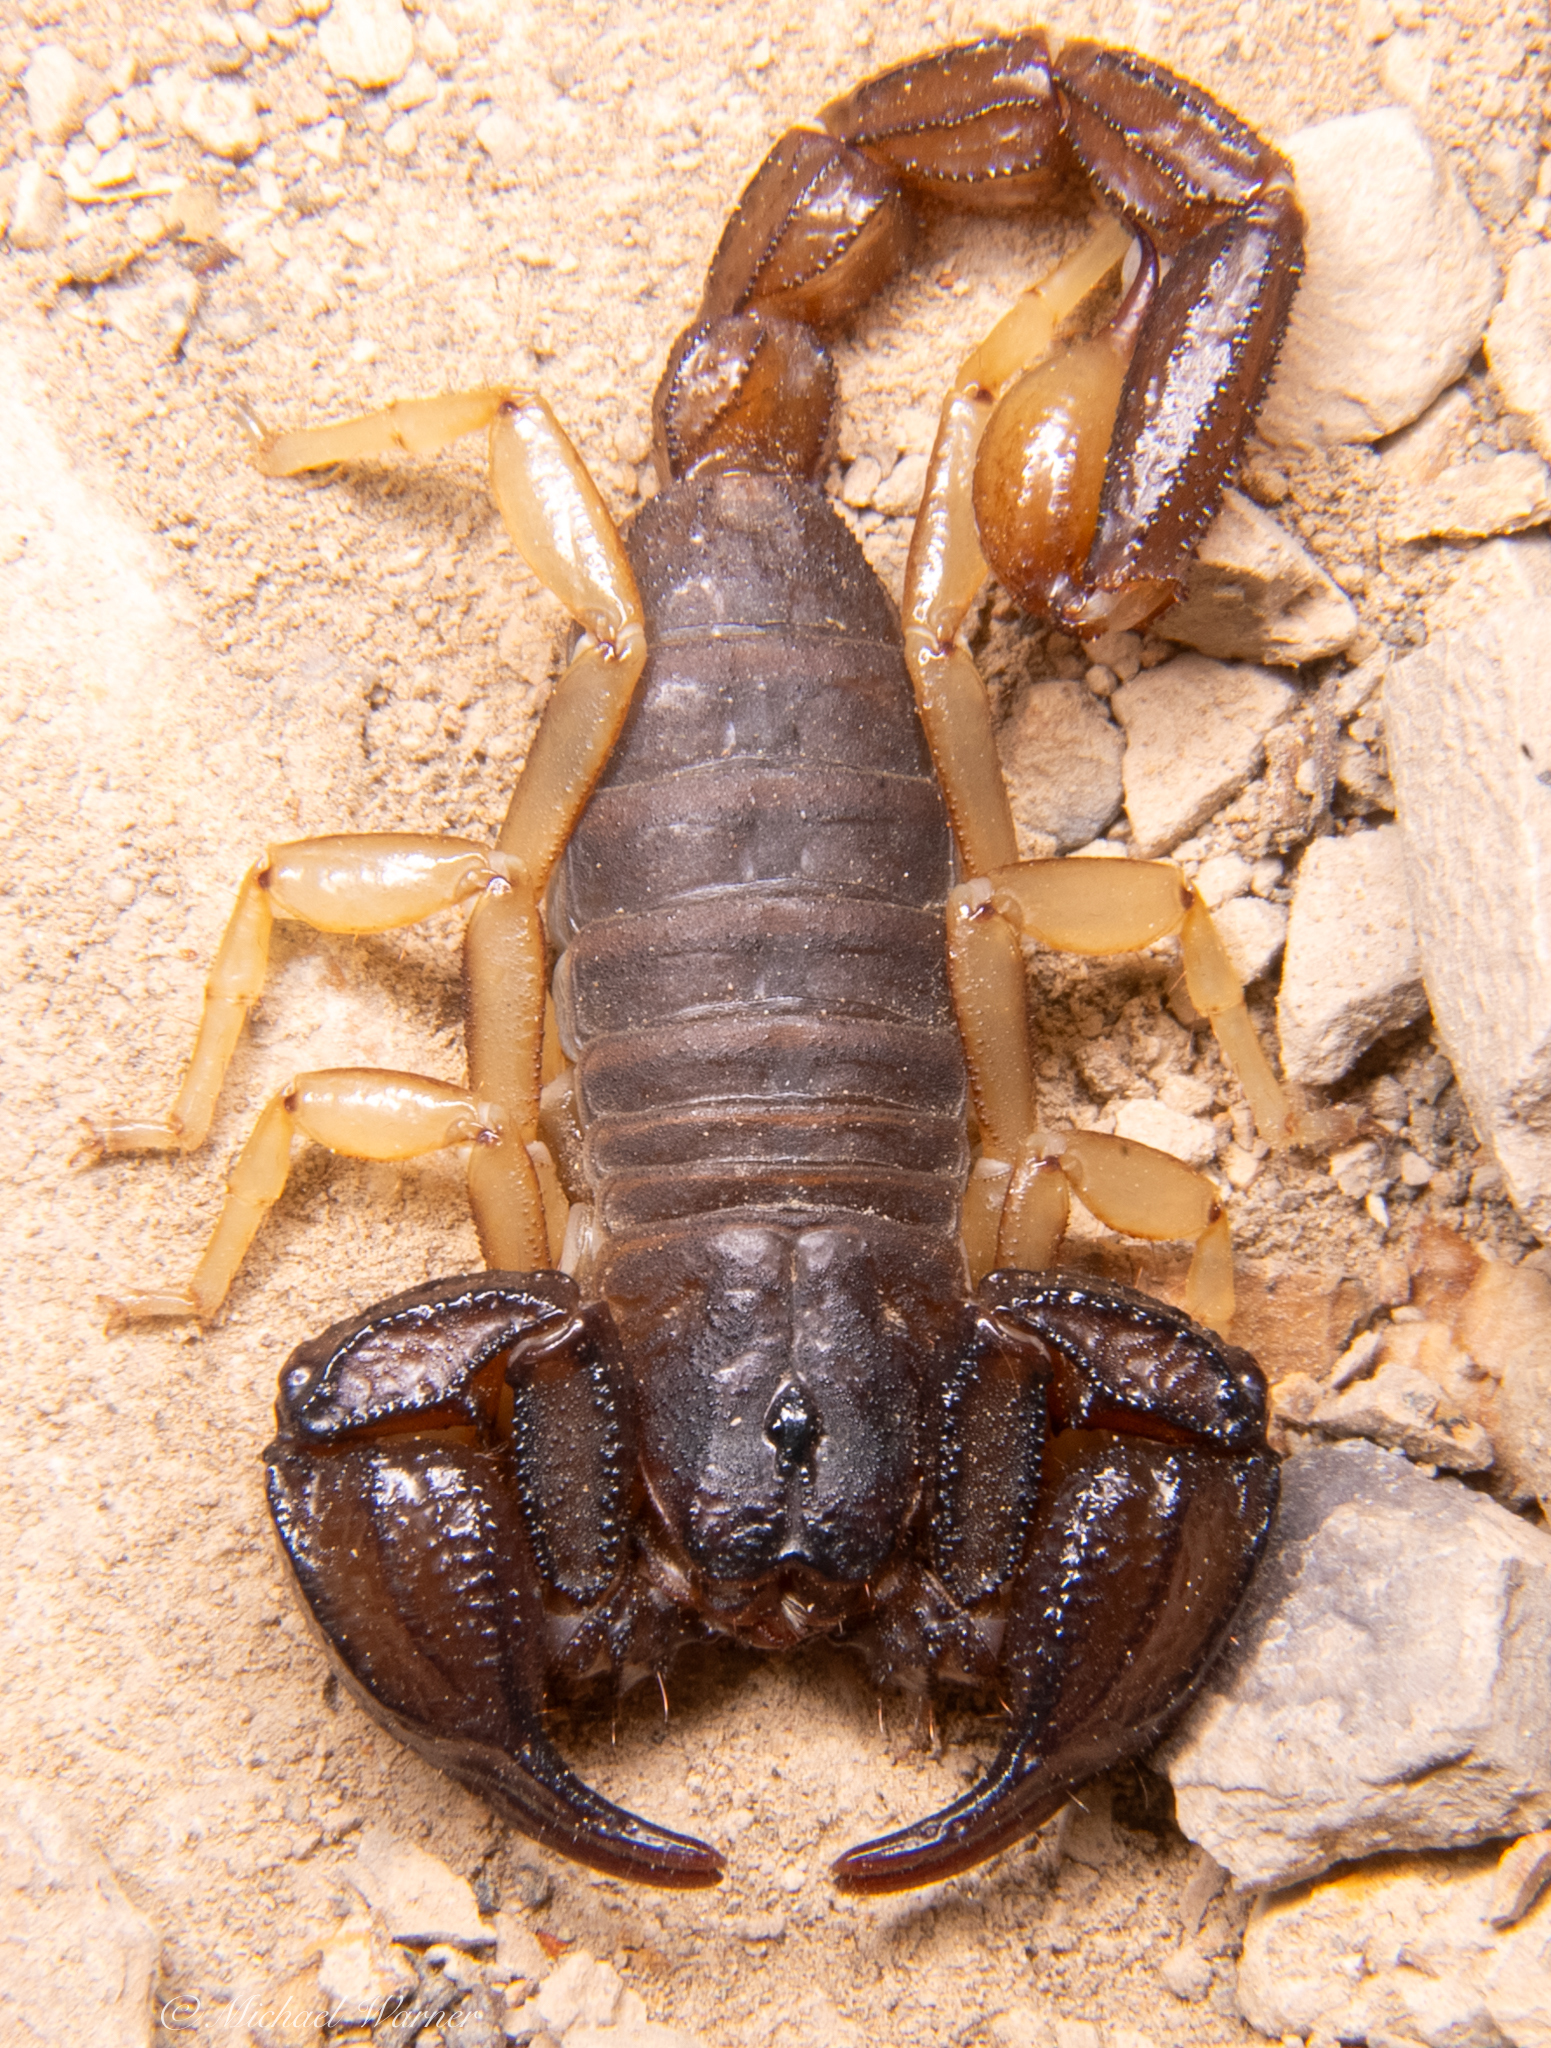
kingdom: Animalia
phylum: Arthropoda
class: Arachnida
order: Scorpiones
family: Chactidae
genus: Uroctonus
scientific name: Uroctonus mordax
